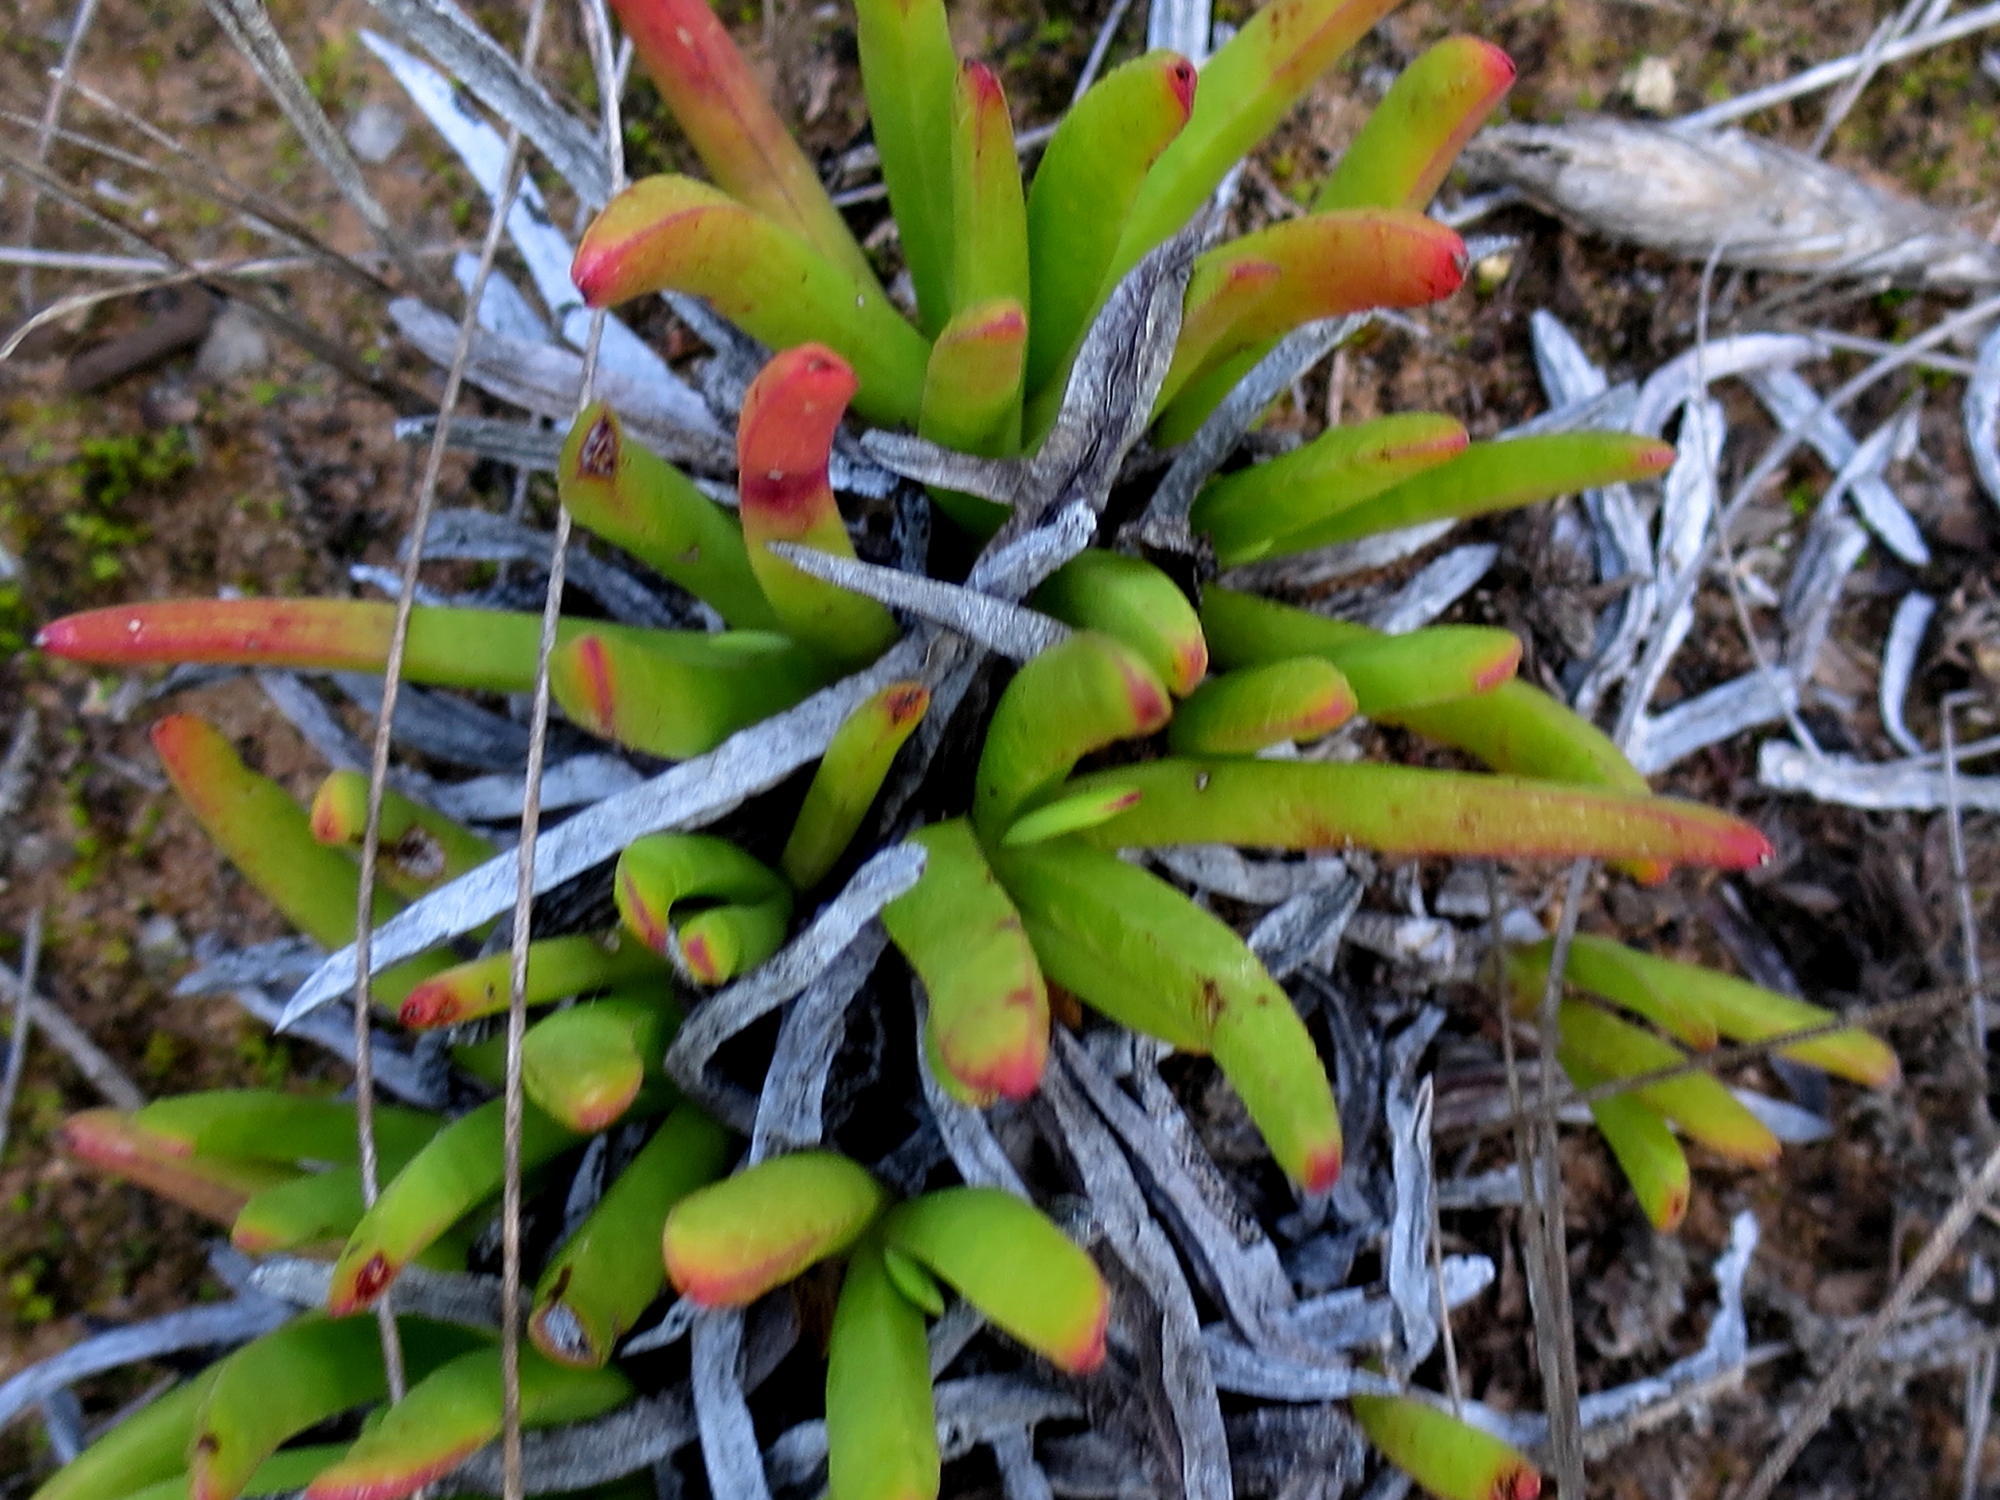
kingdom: Plantae
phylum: Tracheophyta
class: Magnoliopsida
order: Caryophyllales
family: Aizoaceae
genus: Carpobrotus
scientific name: Carpobrotus muirii
